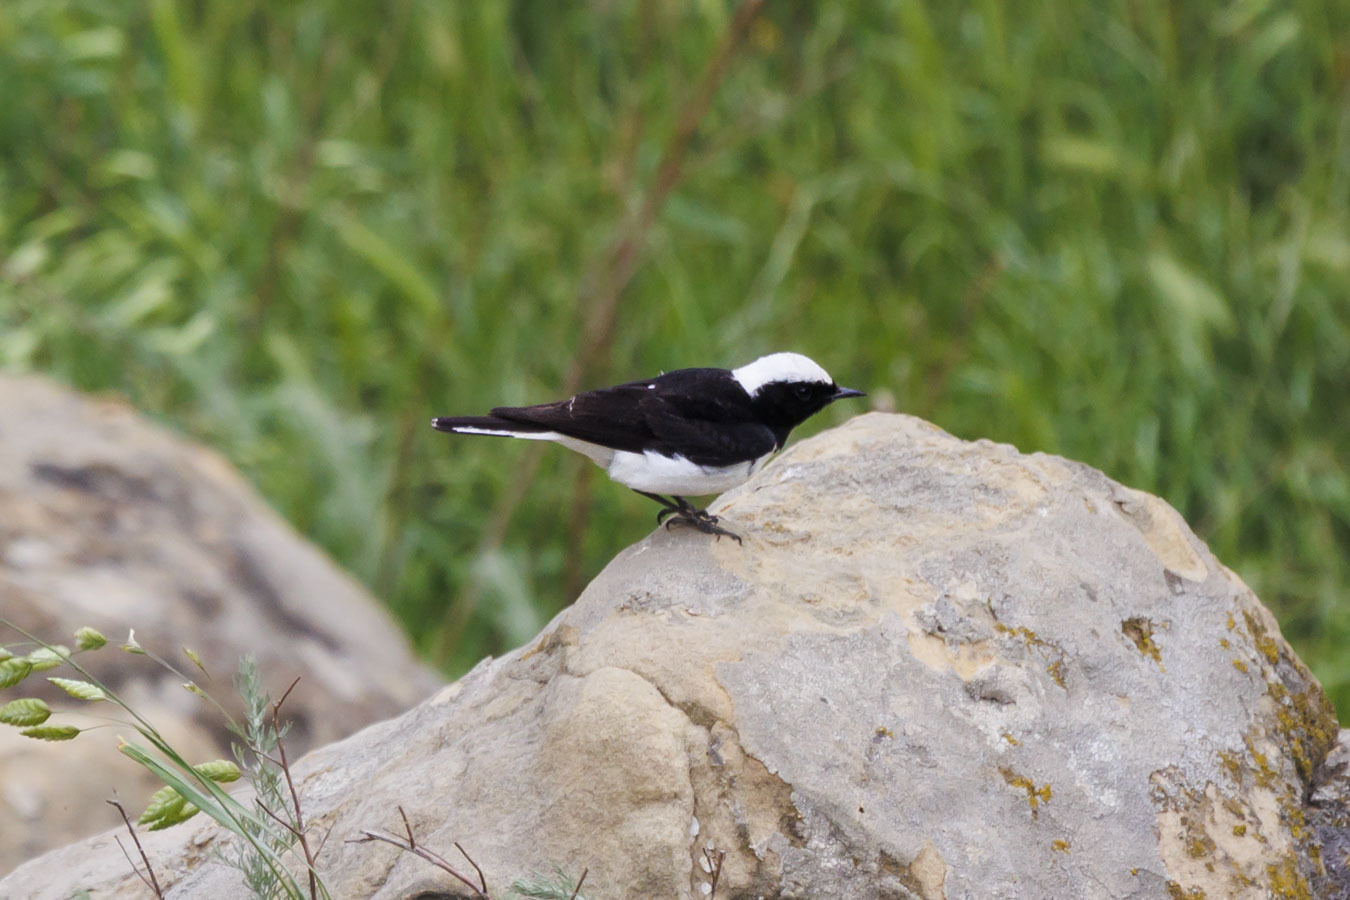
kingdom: Animalia
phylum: Chordata
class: Aves
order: Passeriformes
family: Muscicapidae
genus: Oenanthe
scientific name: Oenanthe pleschanka
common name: Pied wheatear
